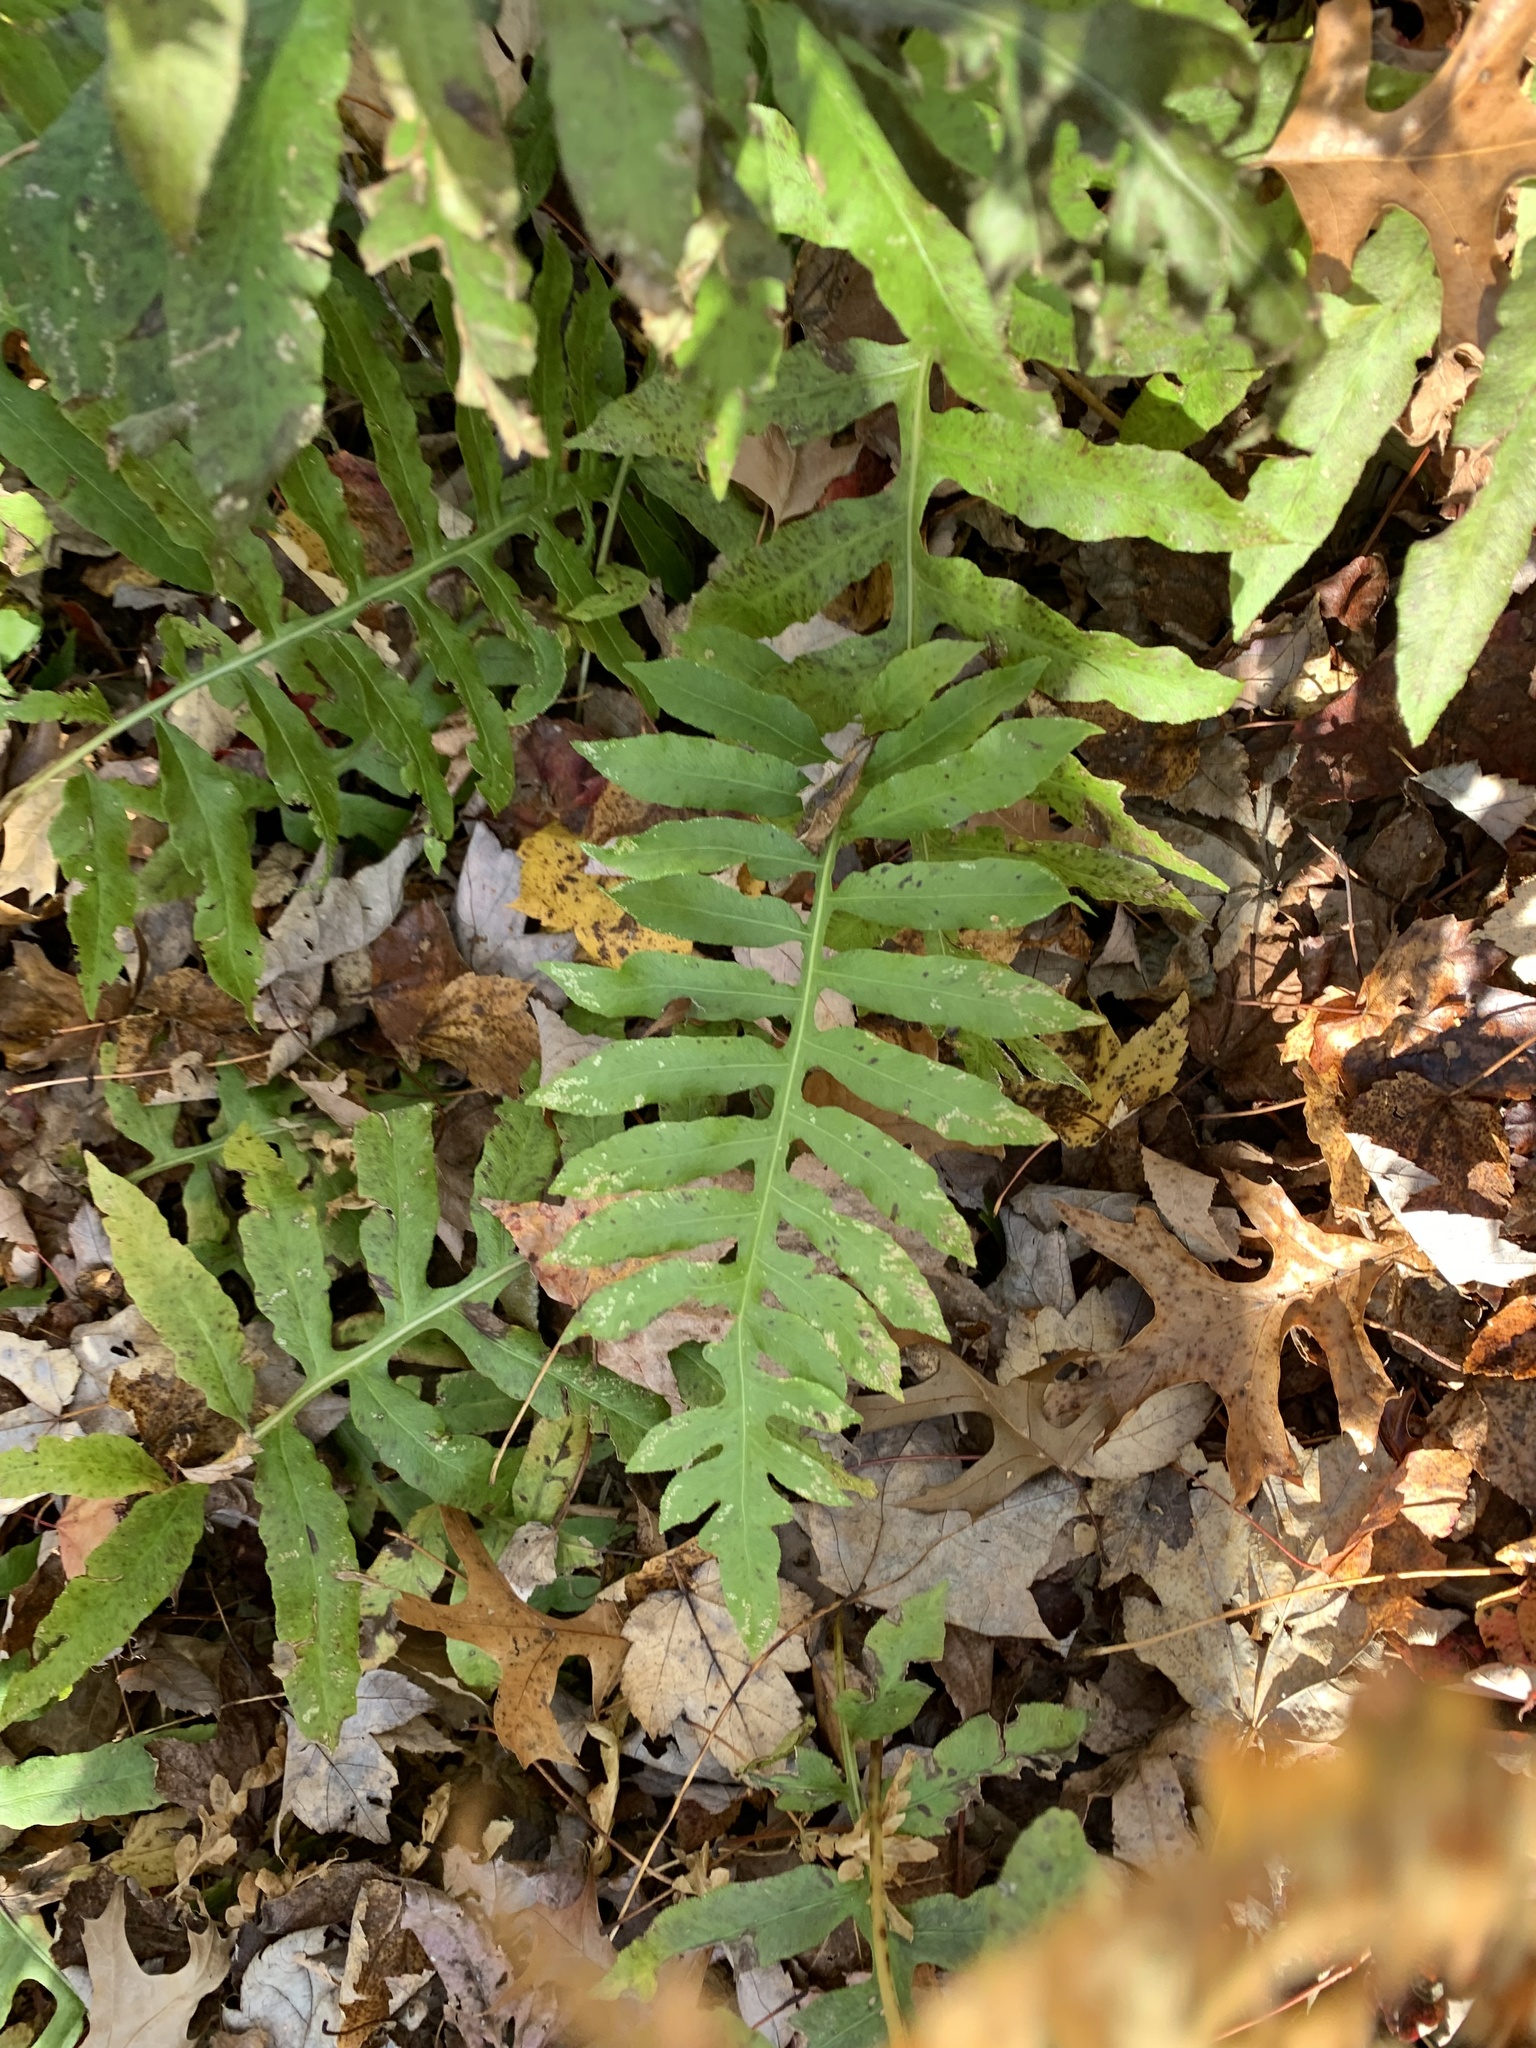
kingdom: Plantae
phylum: Tracheophyta
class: Polypodiopsida
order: Polypodiales
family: Blechnaceae
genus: Lorinseria
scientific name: Lorinseria areolata
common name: Dwarf chain fern
